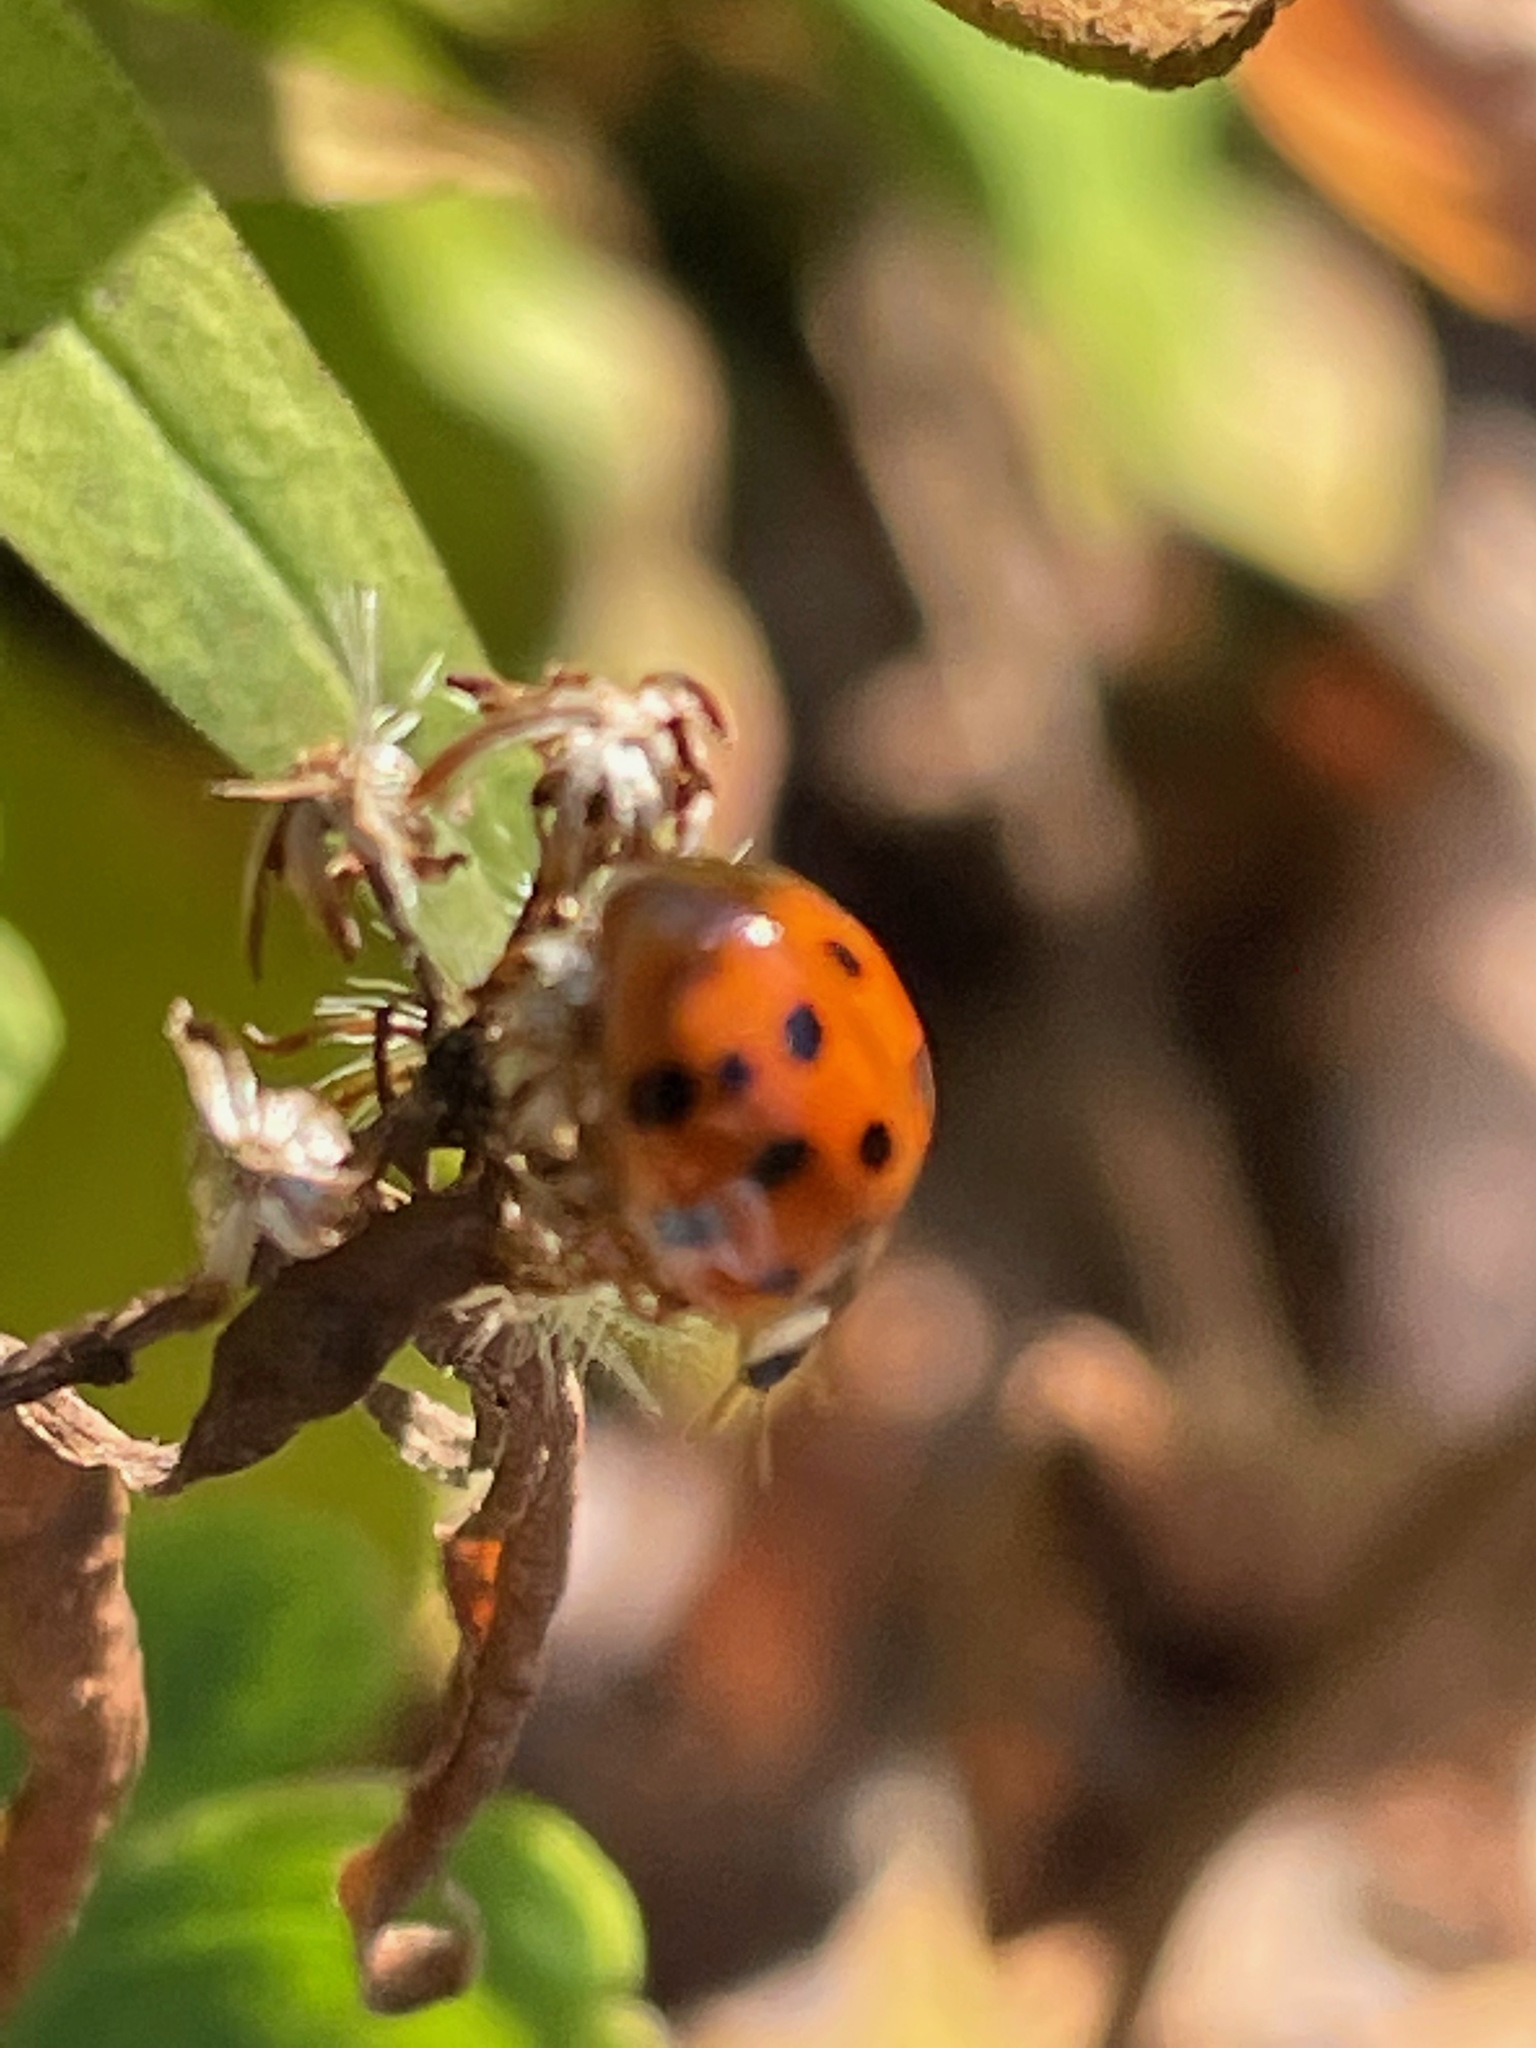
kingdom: Animalia
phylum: Arthropoda
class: Insecta
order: Coleoptera
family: Coccinellidae
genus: Harmonia
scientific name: Harmonia axyridis
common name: Harlequin ladybird
